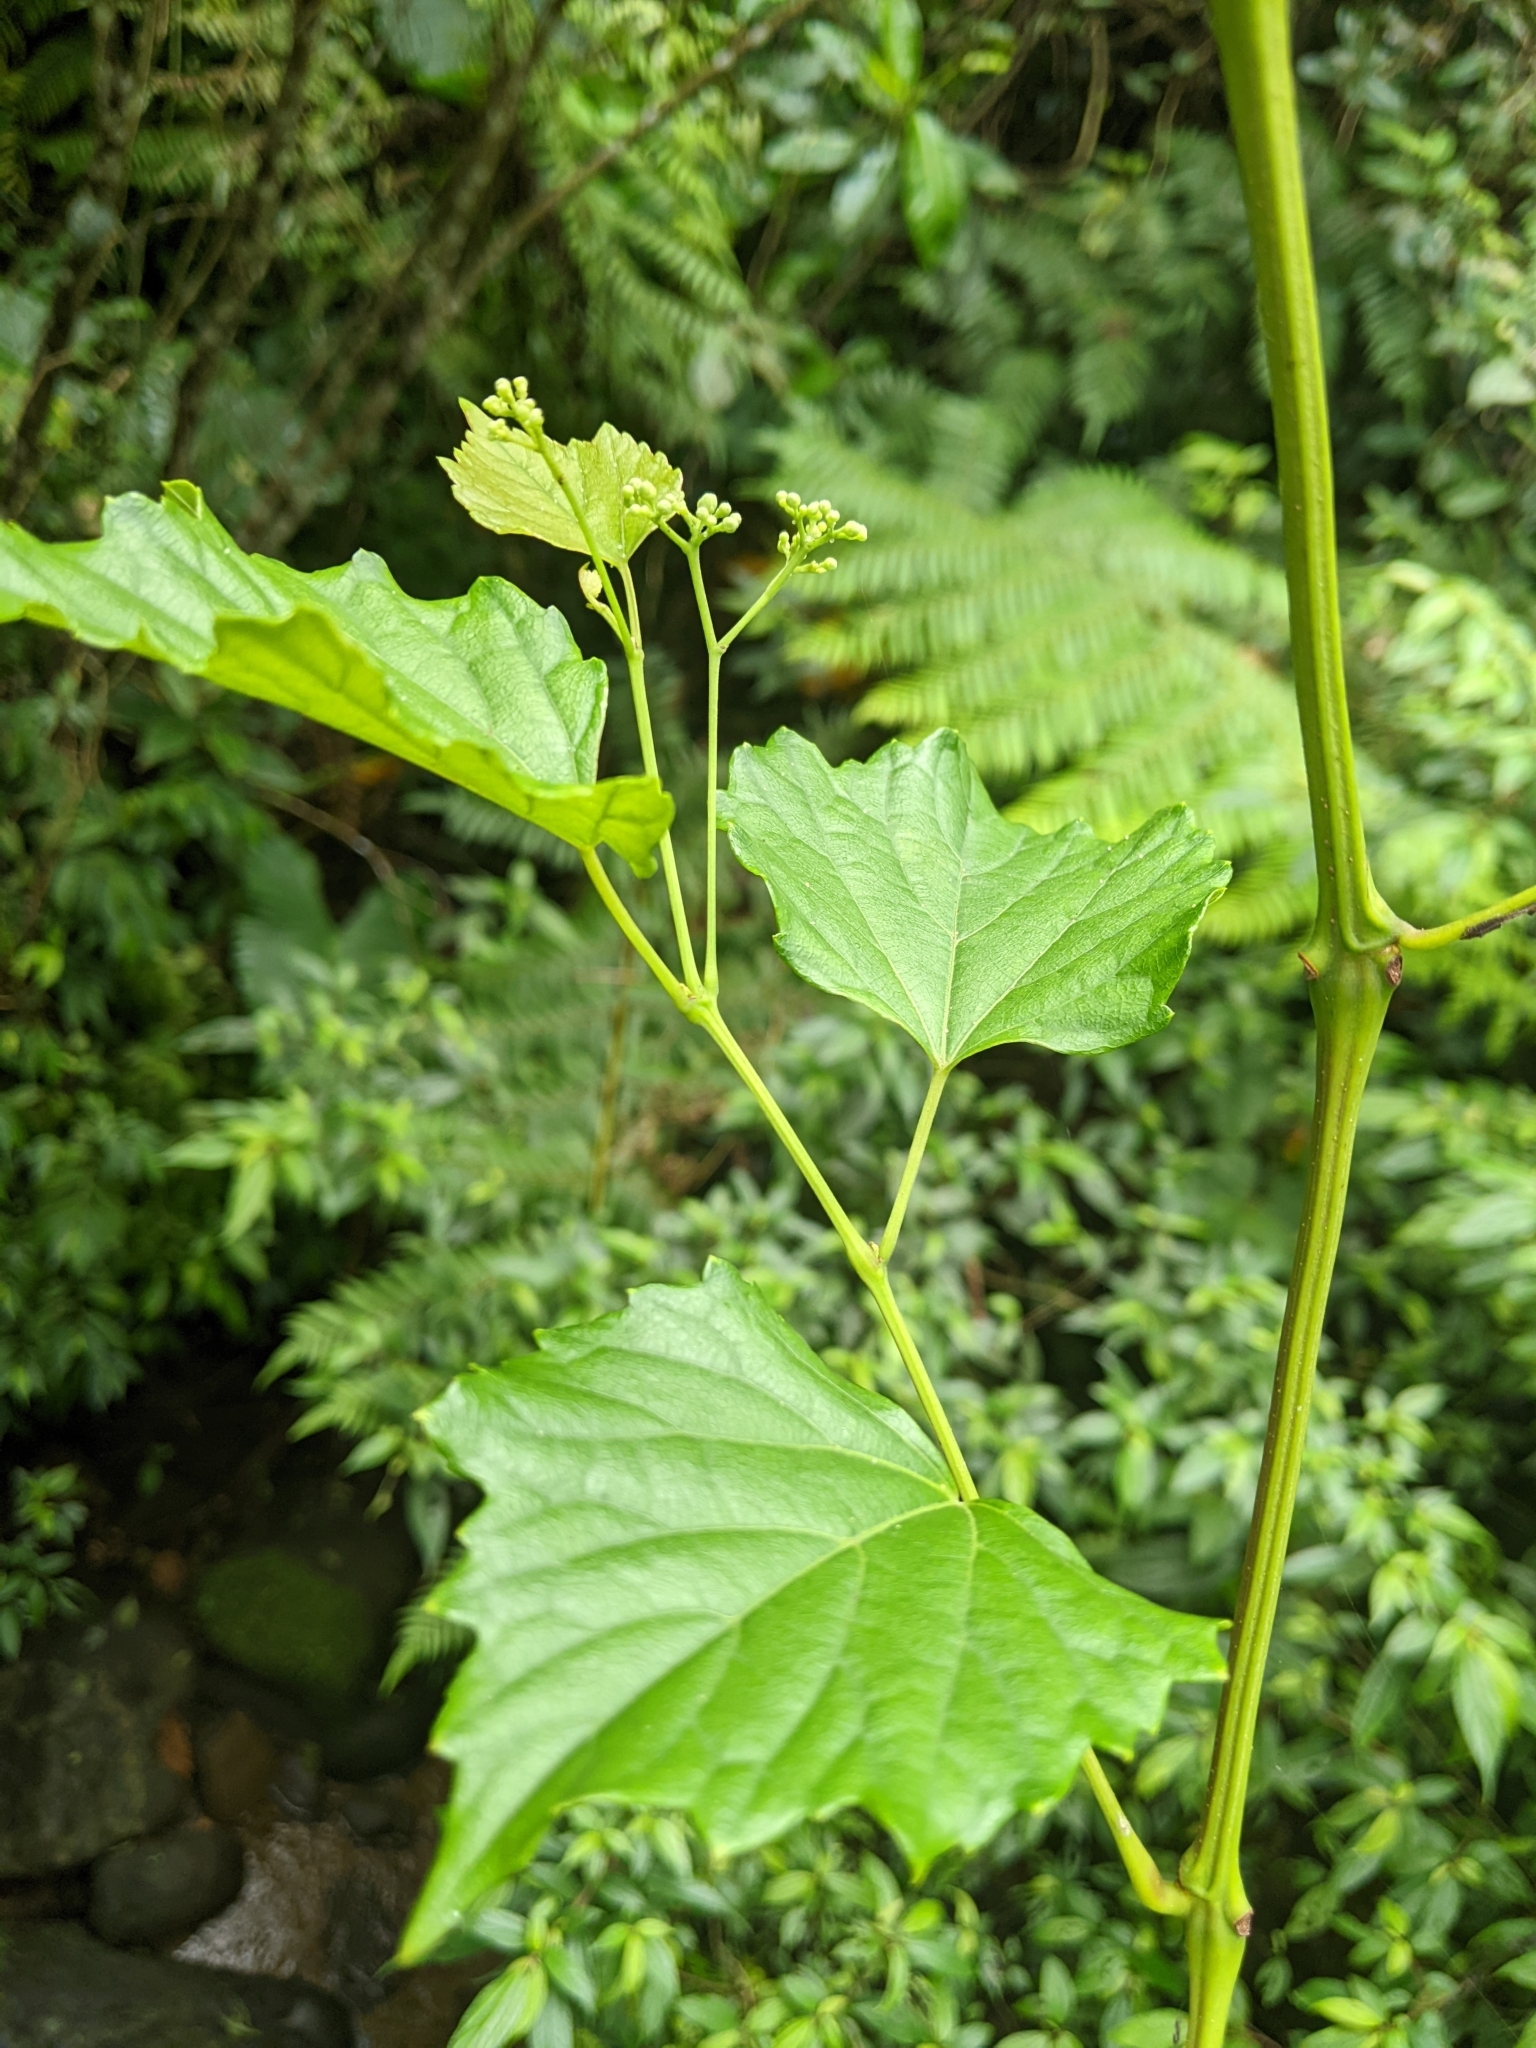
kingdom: Plantae
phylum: Tracheophyta
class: Magnoliopsida
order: Vitales
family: Vitaceae
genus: Ampelopsis
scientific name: Ampelopsis glandulosa
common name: Amur peppervine
